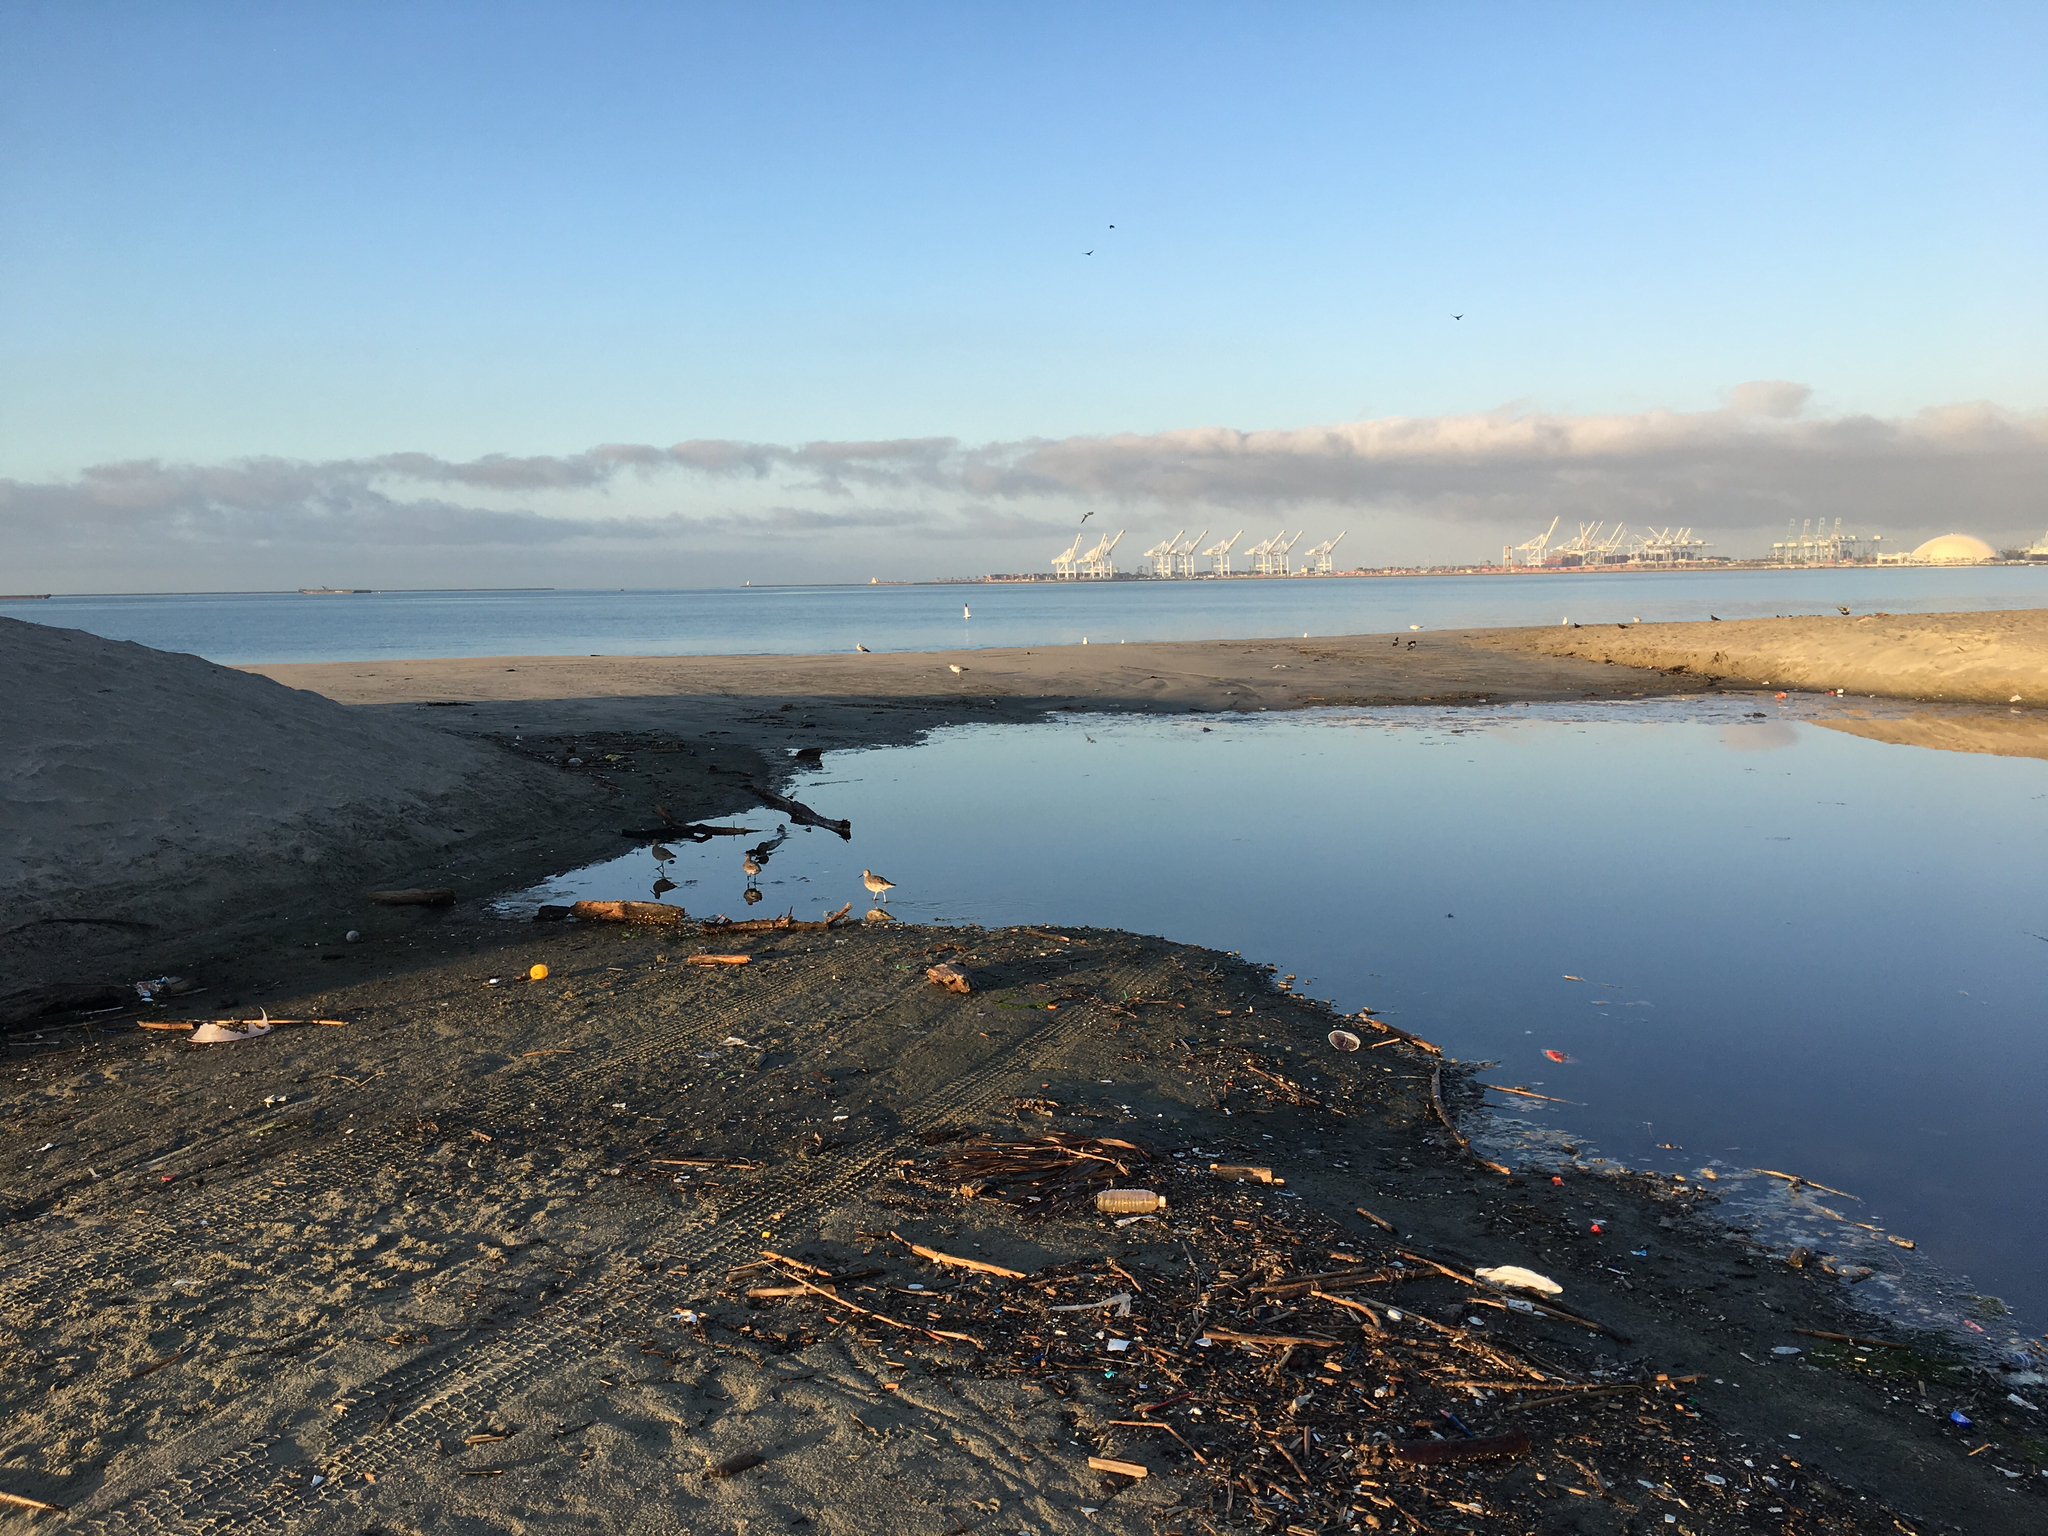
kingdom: Animalia
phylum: Chordata
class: Aves
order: Charadriiformes
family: Scolopacidae
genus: Tringa
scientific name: Tringa semipalmata
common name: Willet
